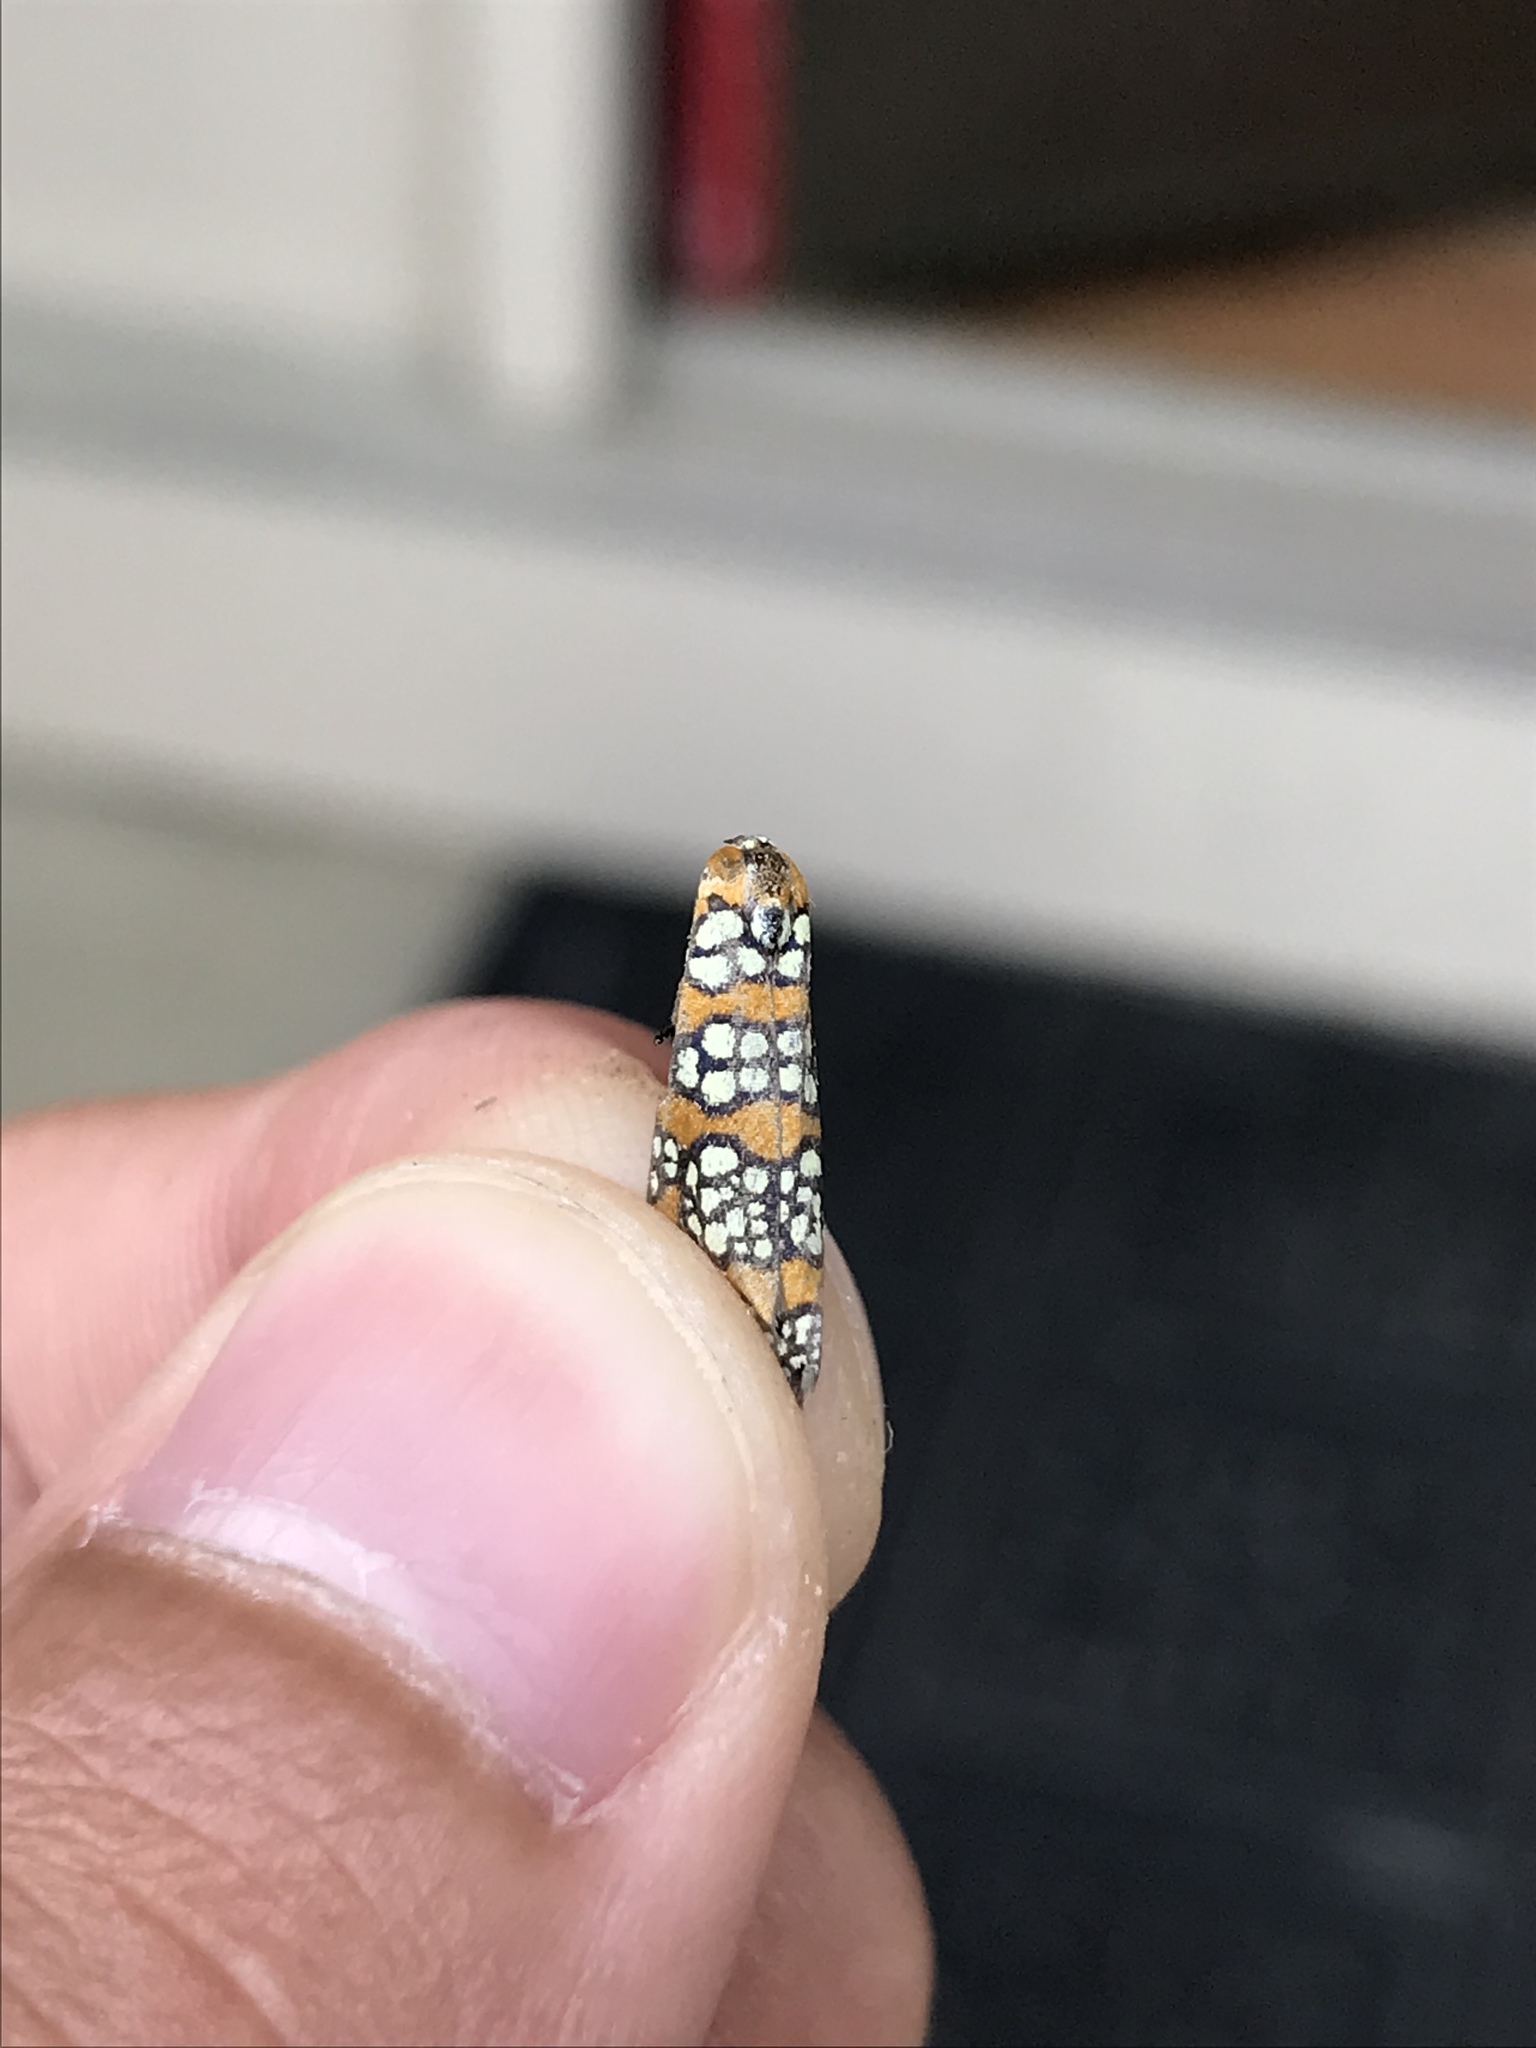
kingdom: Animalia
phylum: Arthropoda
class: Insecta
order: Lepidoptera
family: Attevidae
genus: Atteva
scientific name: Atteva punctella
